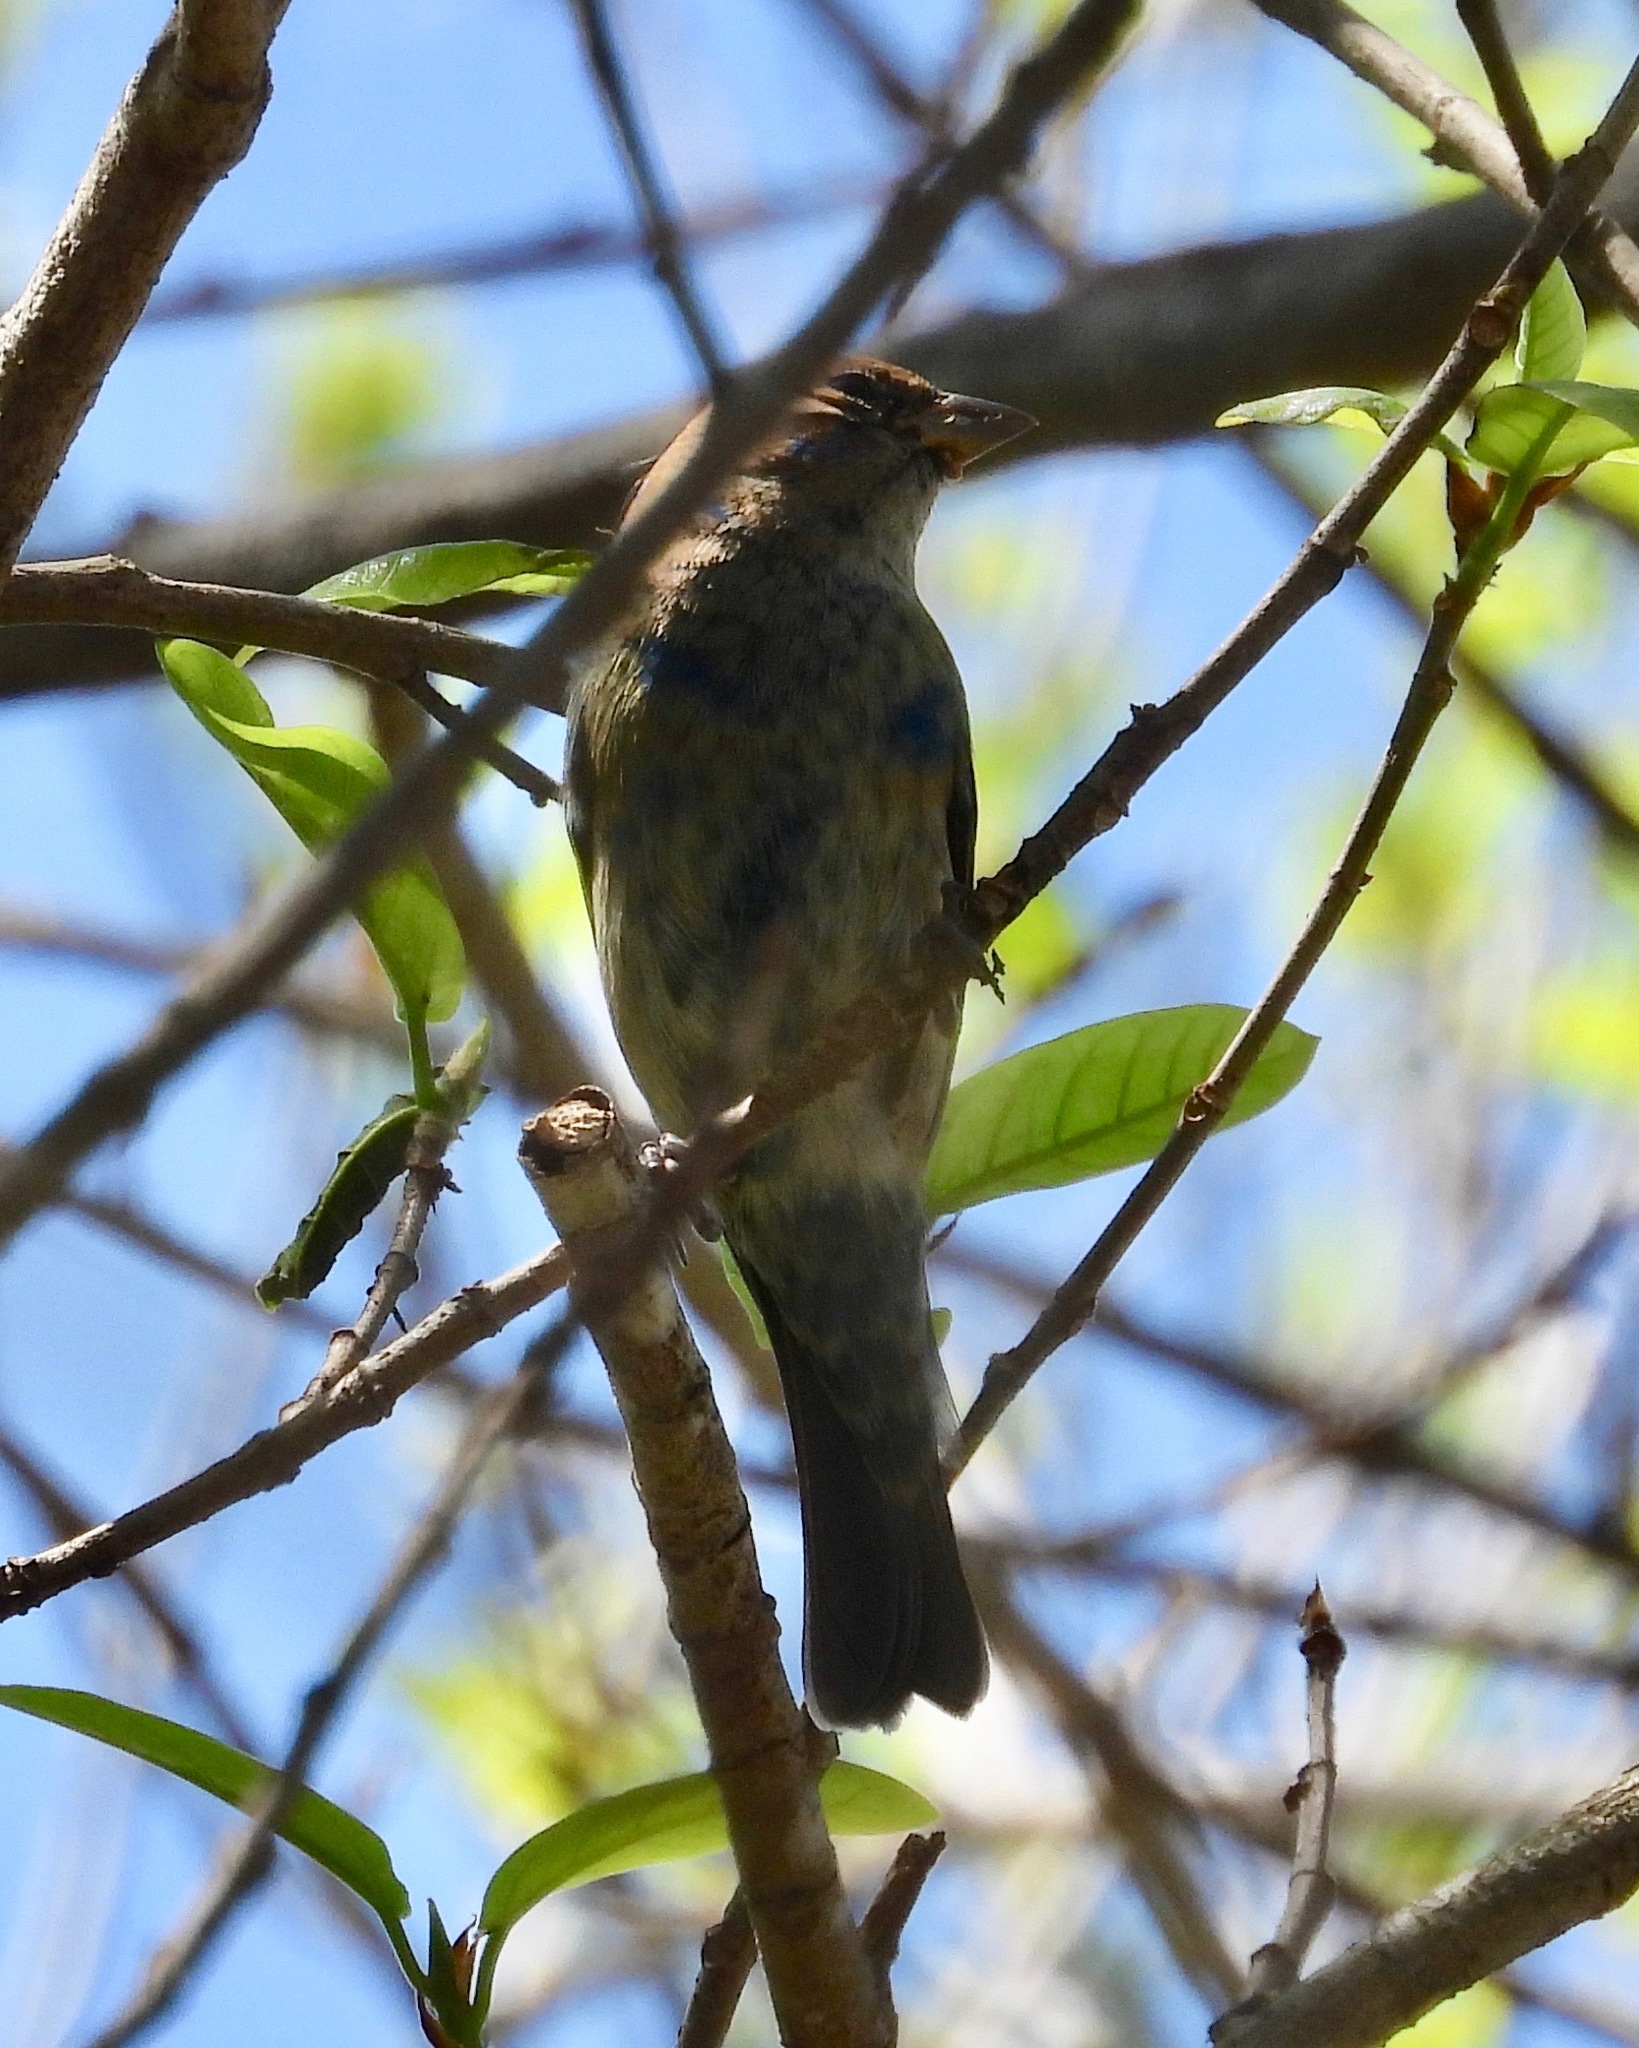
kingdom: Animalia
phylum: Chordata
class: Aves
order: Passeriformes
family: Cardinalidae
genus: Passerina
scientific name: Passerina cyanea
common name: Indigo bunting
